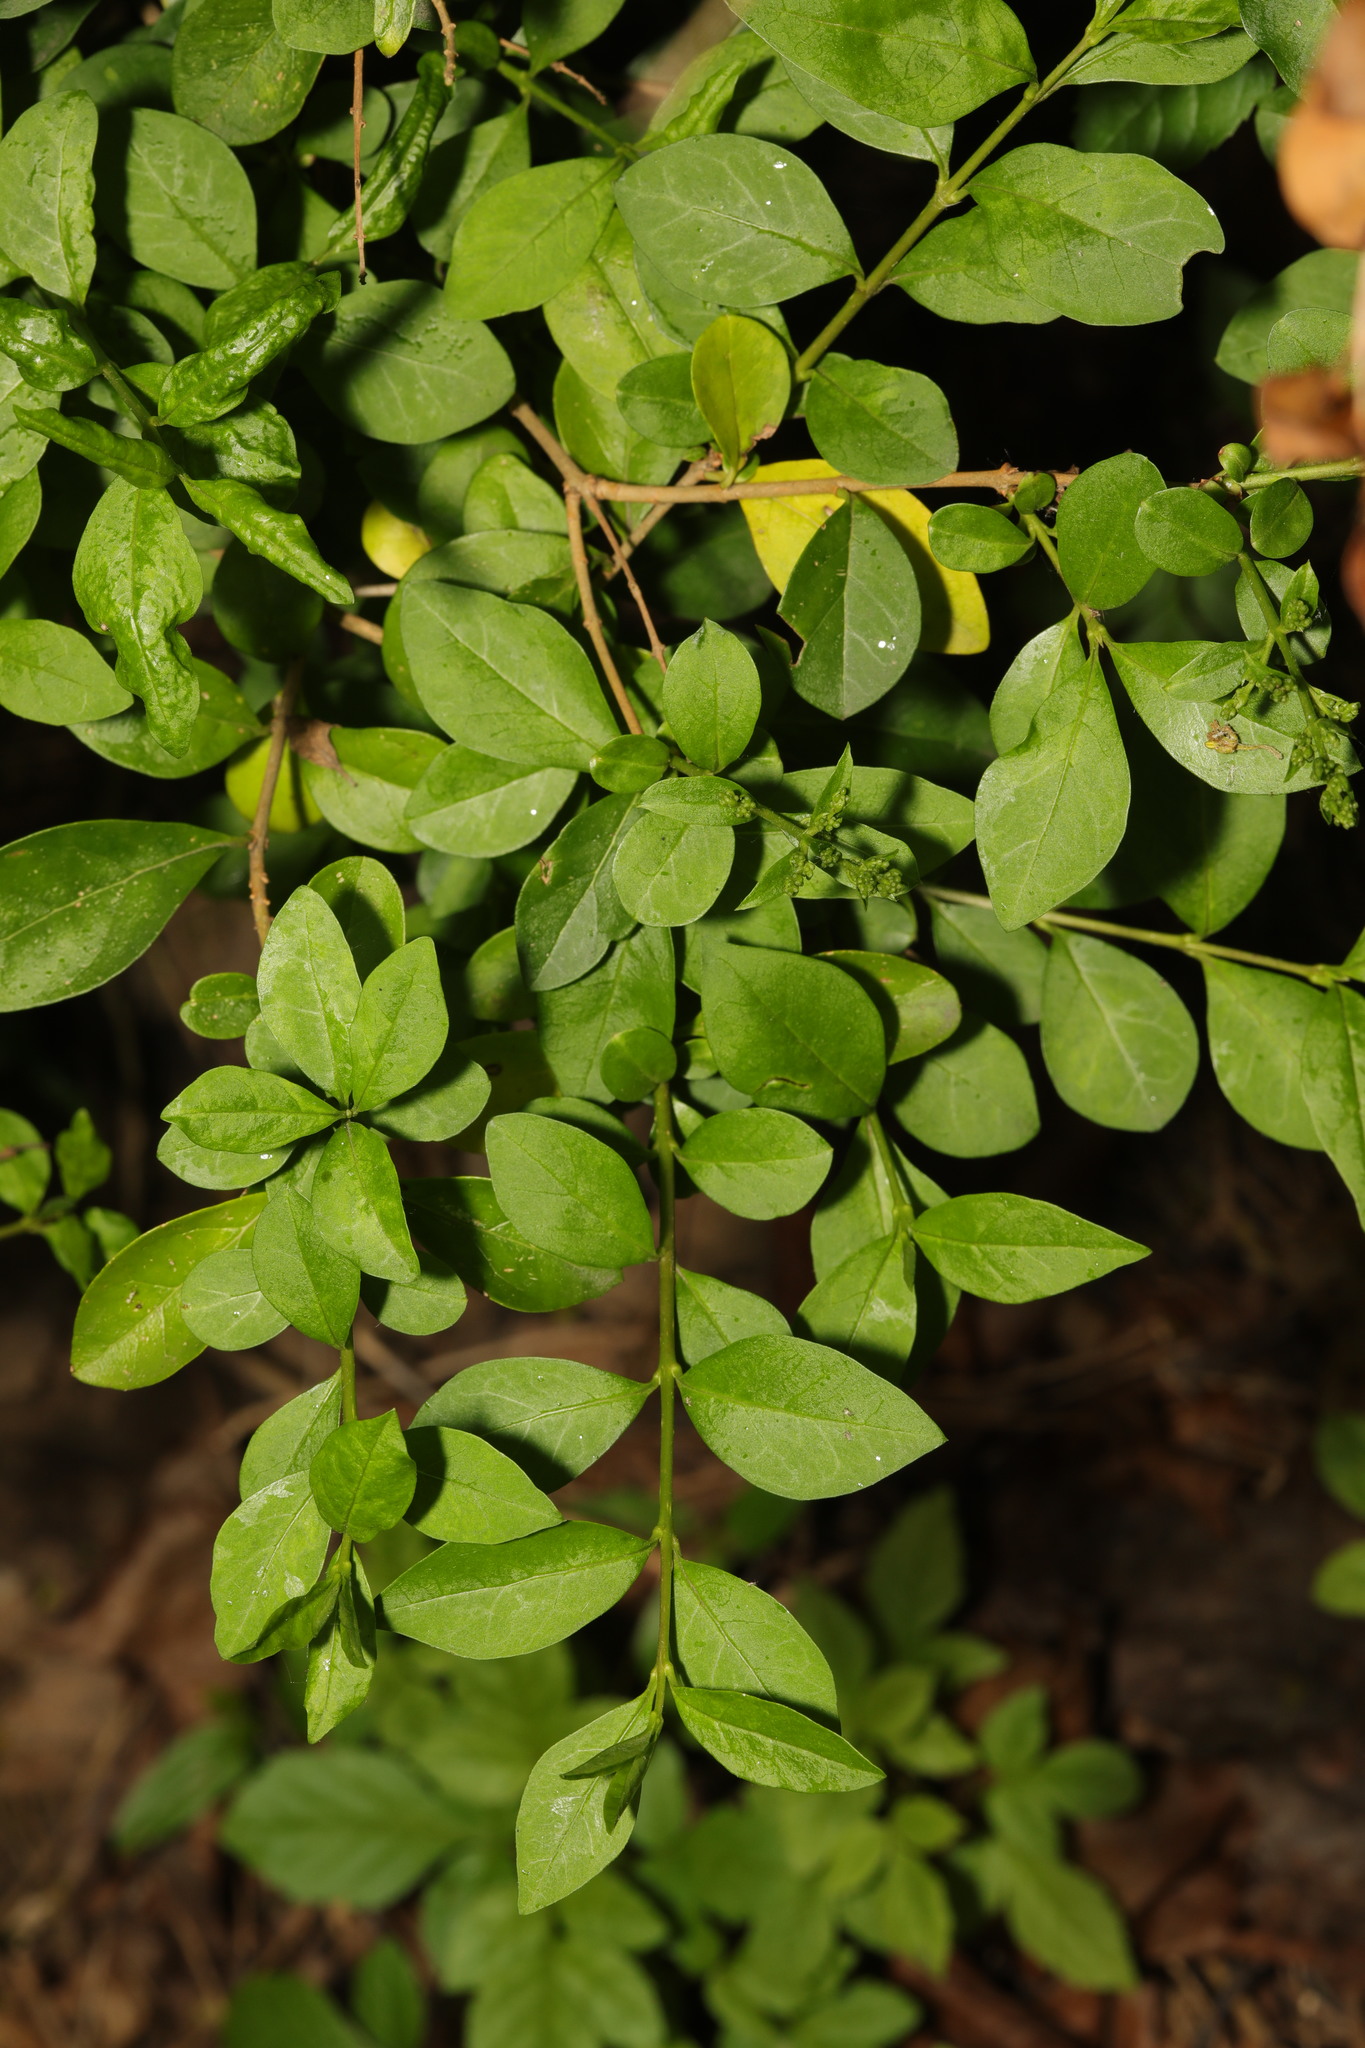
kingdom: Plantae
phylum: Tracheophyta
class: Magnoliopsida
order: Lamiales
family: Oleaceae
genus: Ligustrum
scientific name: Ligustrum ovalifolium
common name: California privet
